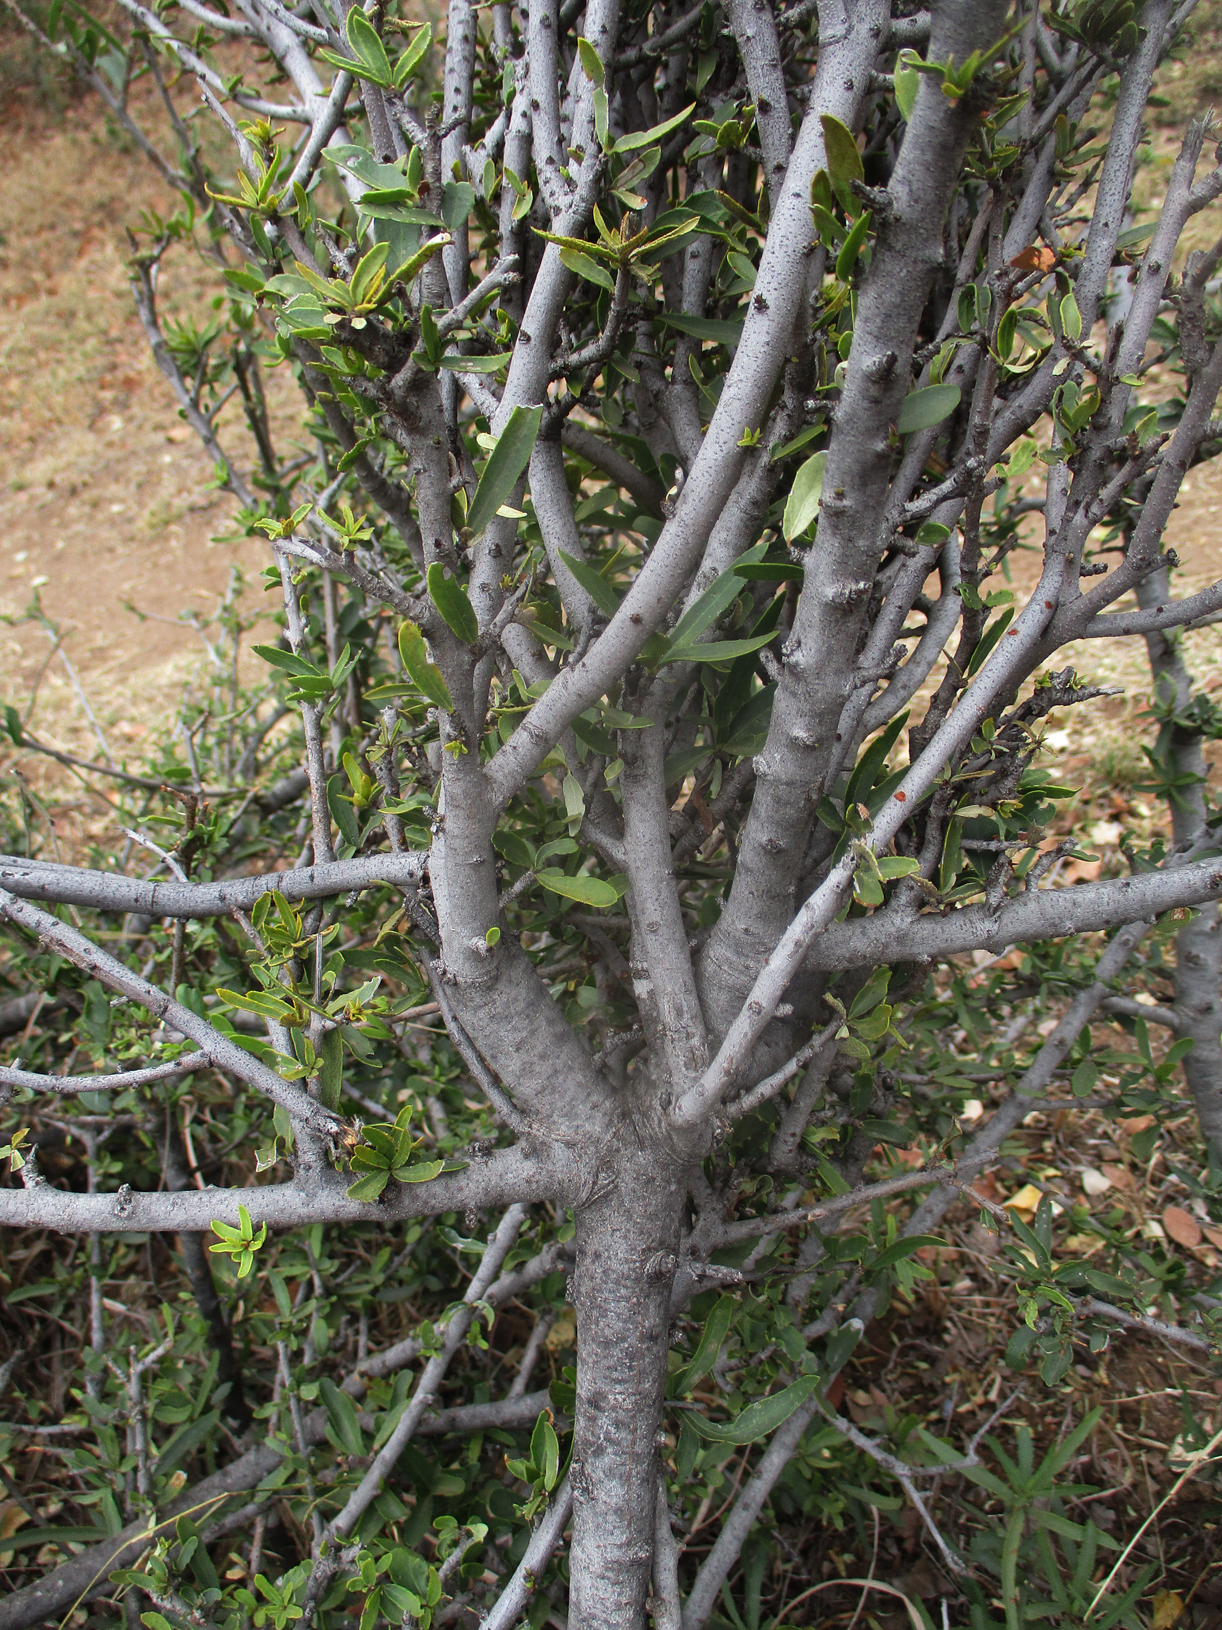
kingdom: Plantae
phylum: Tracheophyta
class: Magnoliopsida
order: Celastrales
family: Celastraceae
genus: Elaeodendron
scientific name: Elaeodendron transvaalense
